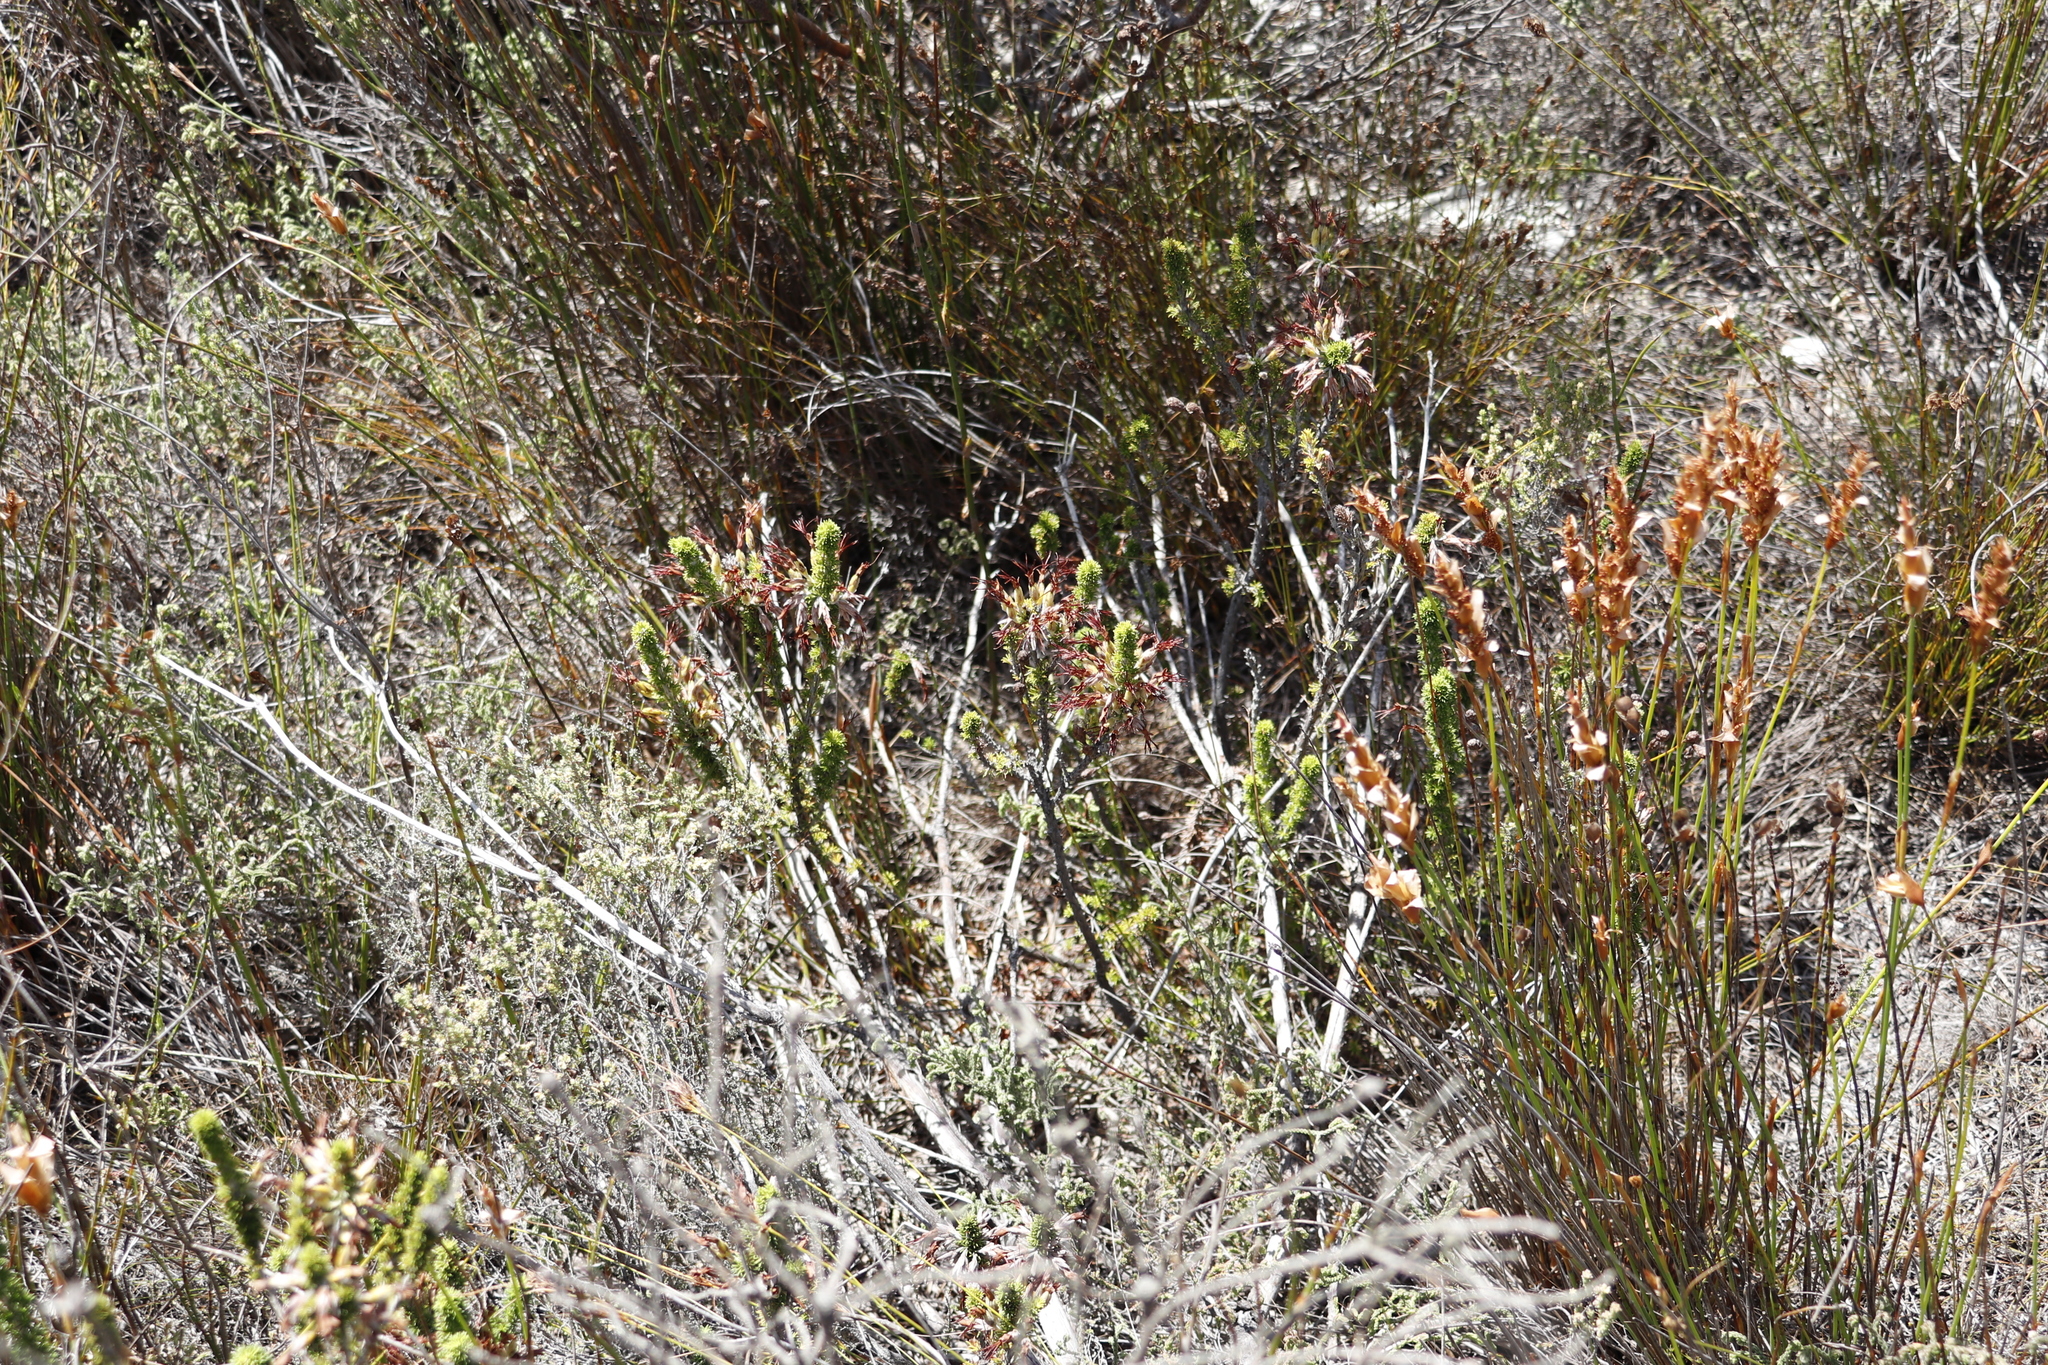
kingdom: Plantae
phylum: Tracheophyta
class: Magnoliopsida
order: Ericales
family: Ericaceae
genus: Erica
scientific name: Erica coccinea
